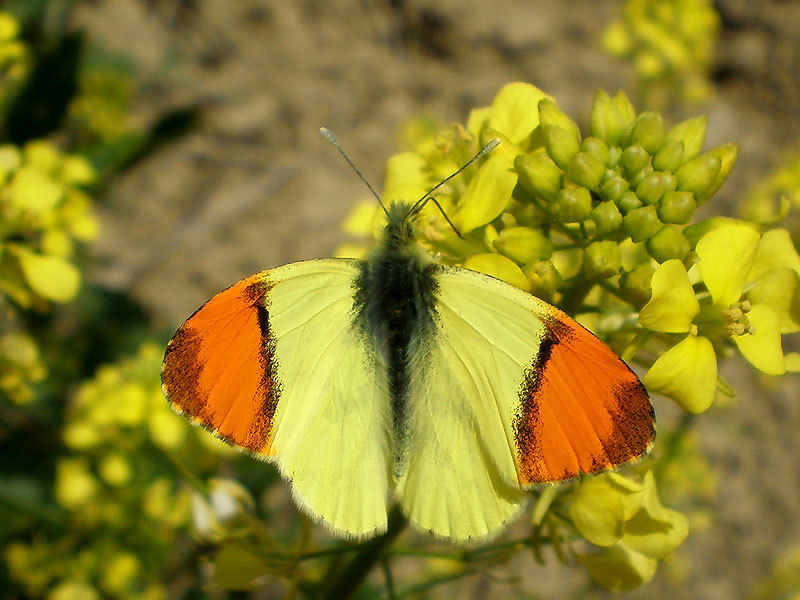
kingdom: Animalia
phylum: Arthropoda
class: Insecta
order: Lepidoptera
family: Pieridae
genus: Anthocharis
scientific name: Anthocharis euphenoides
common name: Provence orange-tip
